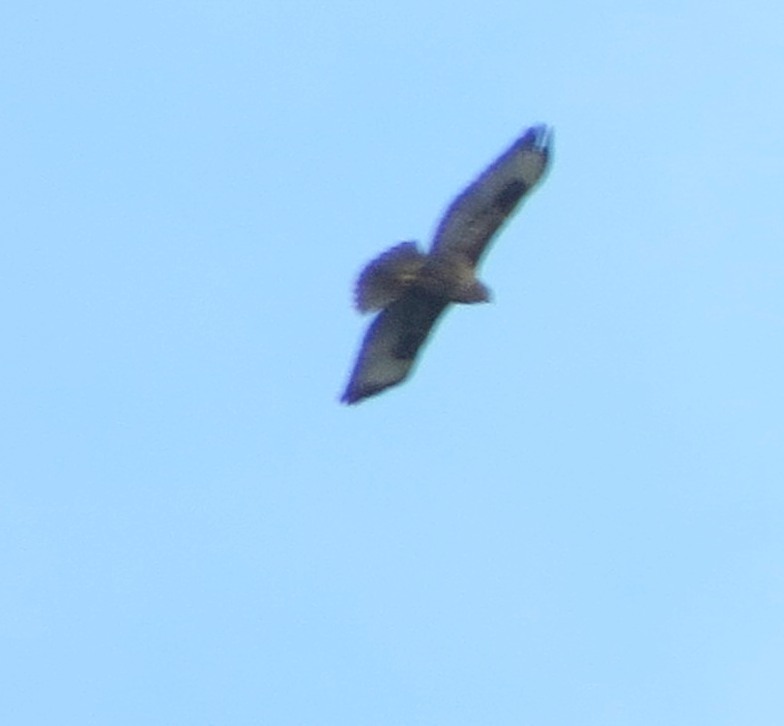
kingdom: Animalia
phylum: Chordata
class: Aves
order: Accipitriformes
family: Accipitridae
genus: Buteo
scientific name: Buteo buteo
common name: Common buzzard
